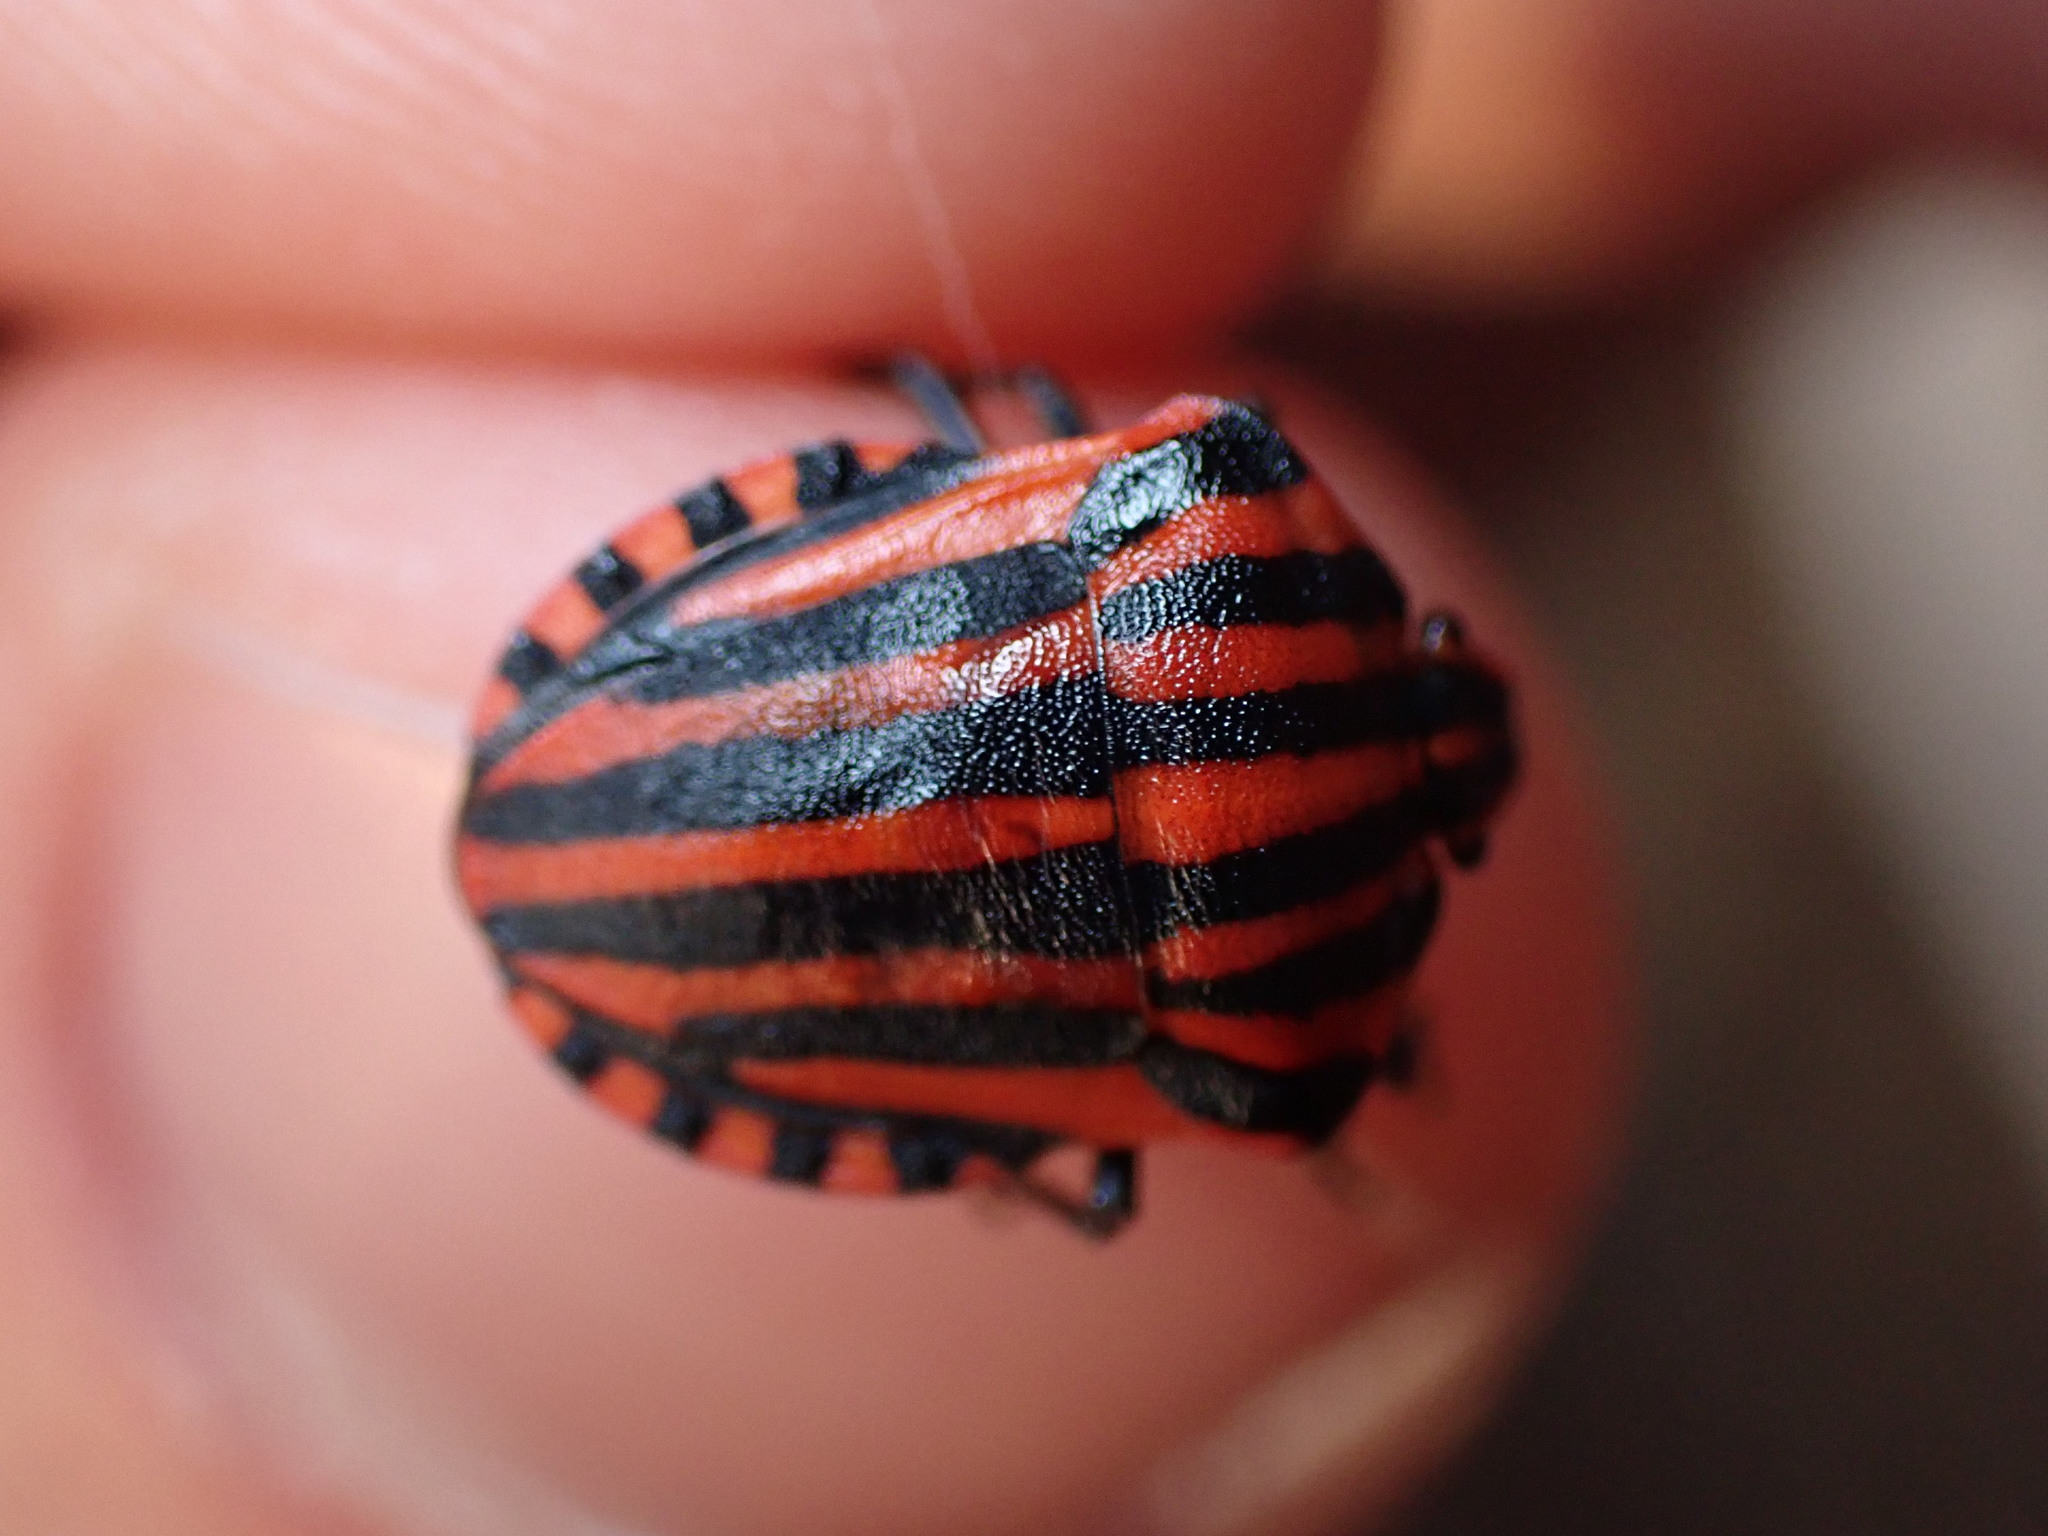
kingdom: Animalia
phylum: Arthropoda
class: Insecta
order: Hemiptera
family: Pentatomidae
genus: Graphosoma
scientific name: Graphosoma italicum
